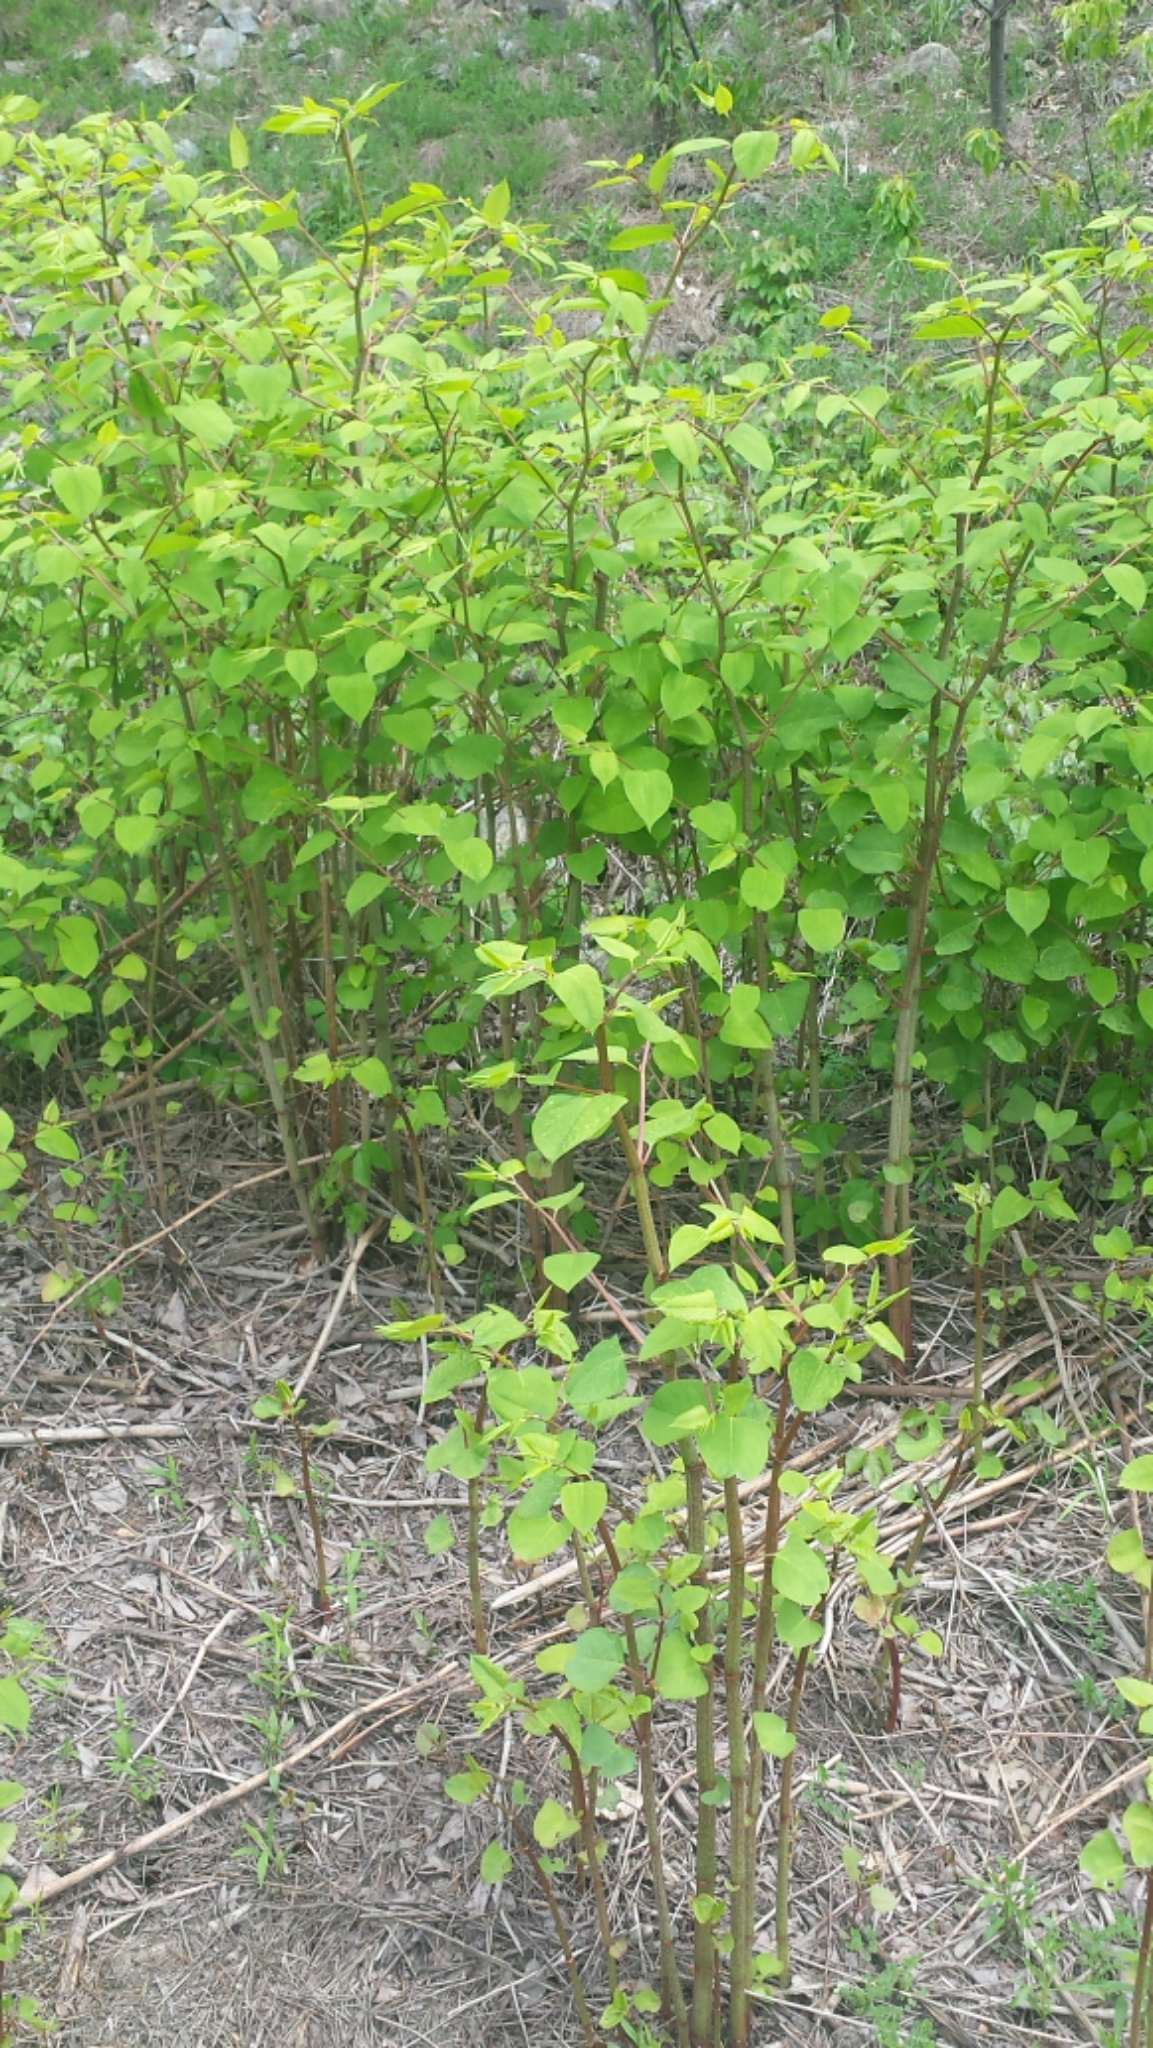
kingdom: Plantae
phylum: Tracheophyta
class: Magnoliopsida
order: Caryophyllales
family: Polygonaceae
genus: Reynoutria
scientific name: Reynoutria japonica
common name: Japanese knotweed
